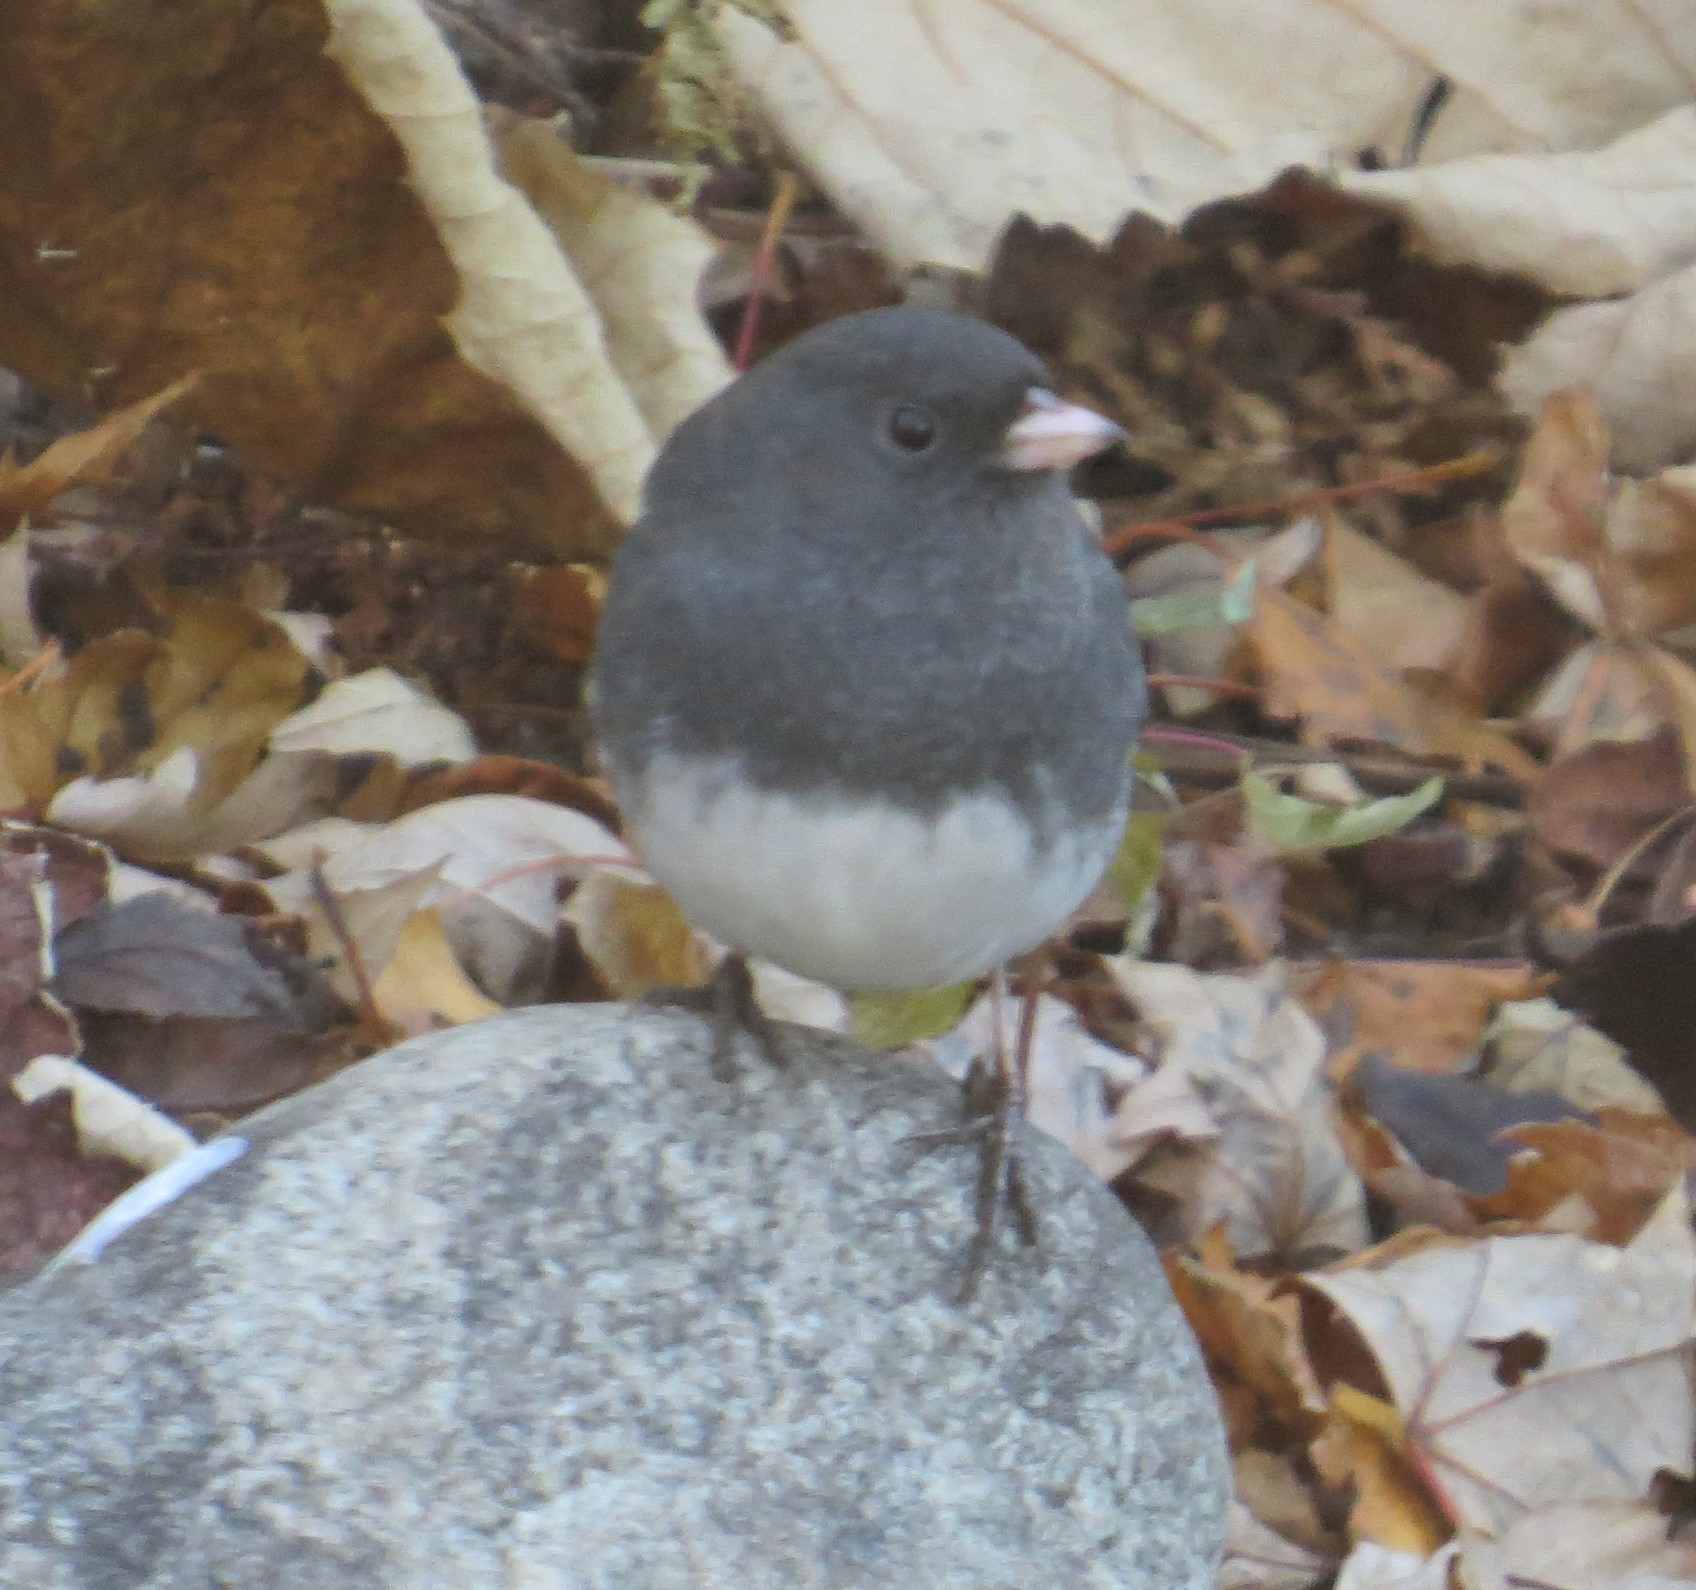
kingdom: Animalia
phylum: Chordata
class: Aves
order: Passeriformes
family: Passerellidae
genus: Junco
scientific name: Junco hyemalis
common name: Dark-eyed junco
